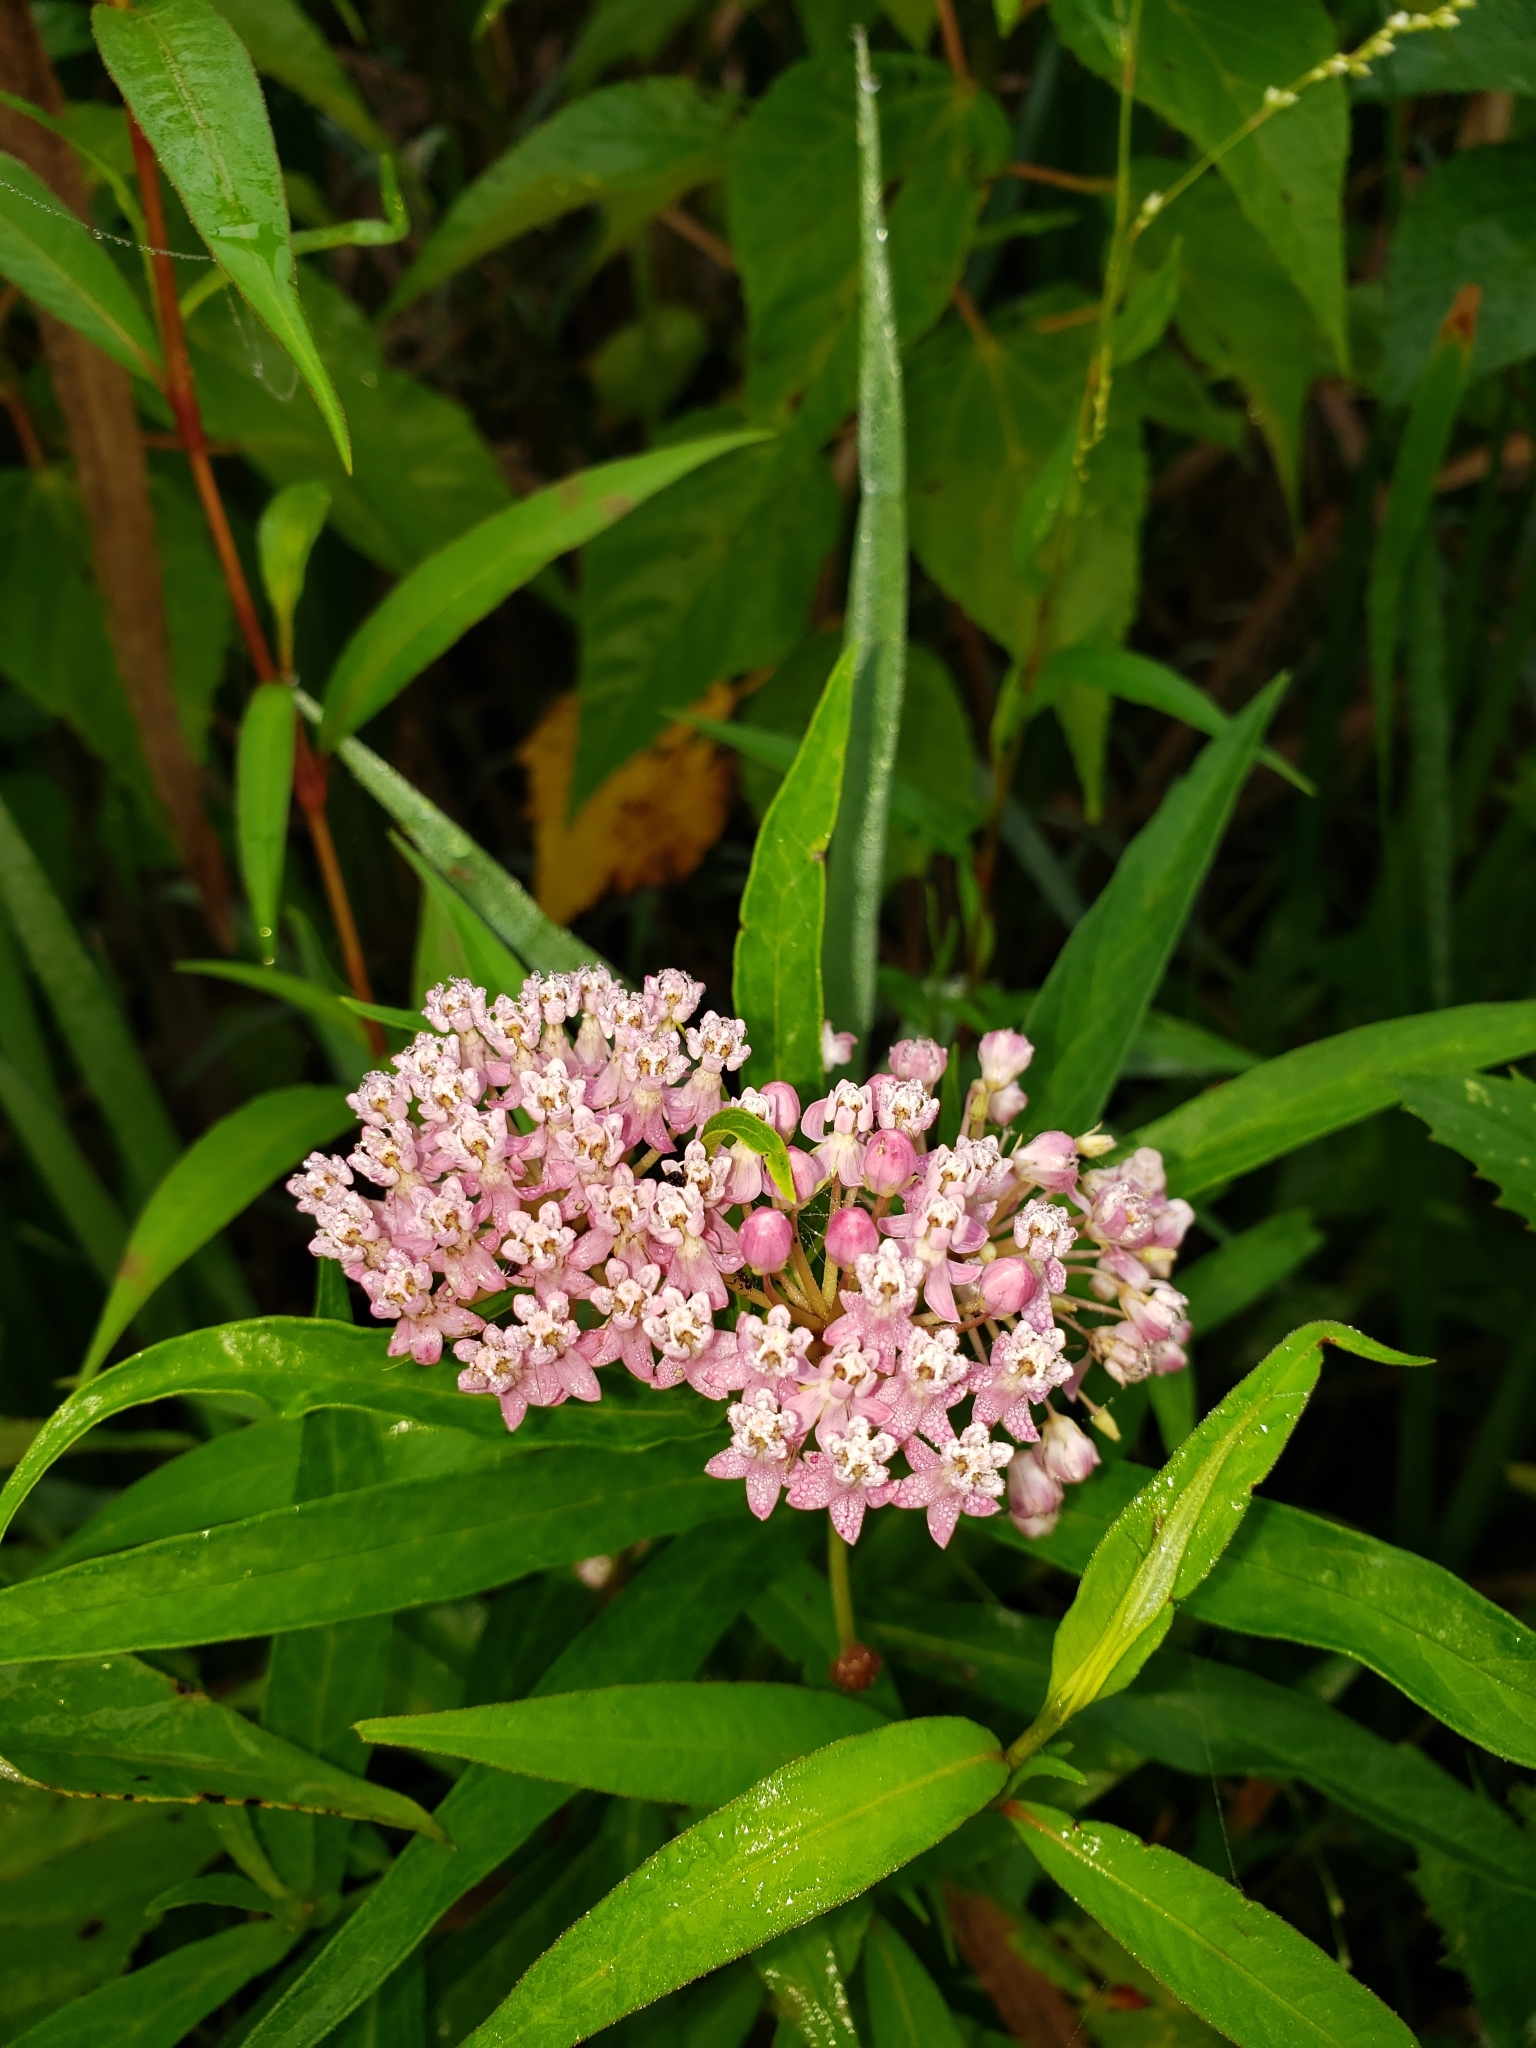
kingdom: Plantae
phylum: Tracheophyta
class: Magnoliopsida
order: Gentianales
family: Apocynaceae
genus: Asclepias
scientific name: Asclepias incarnata
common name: Swamp milkweed
